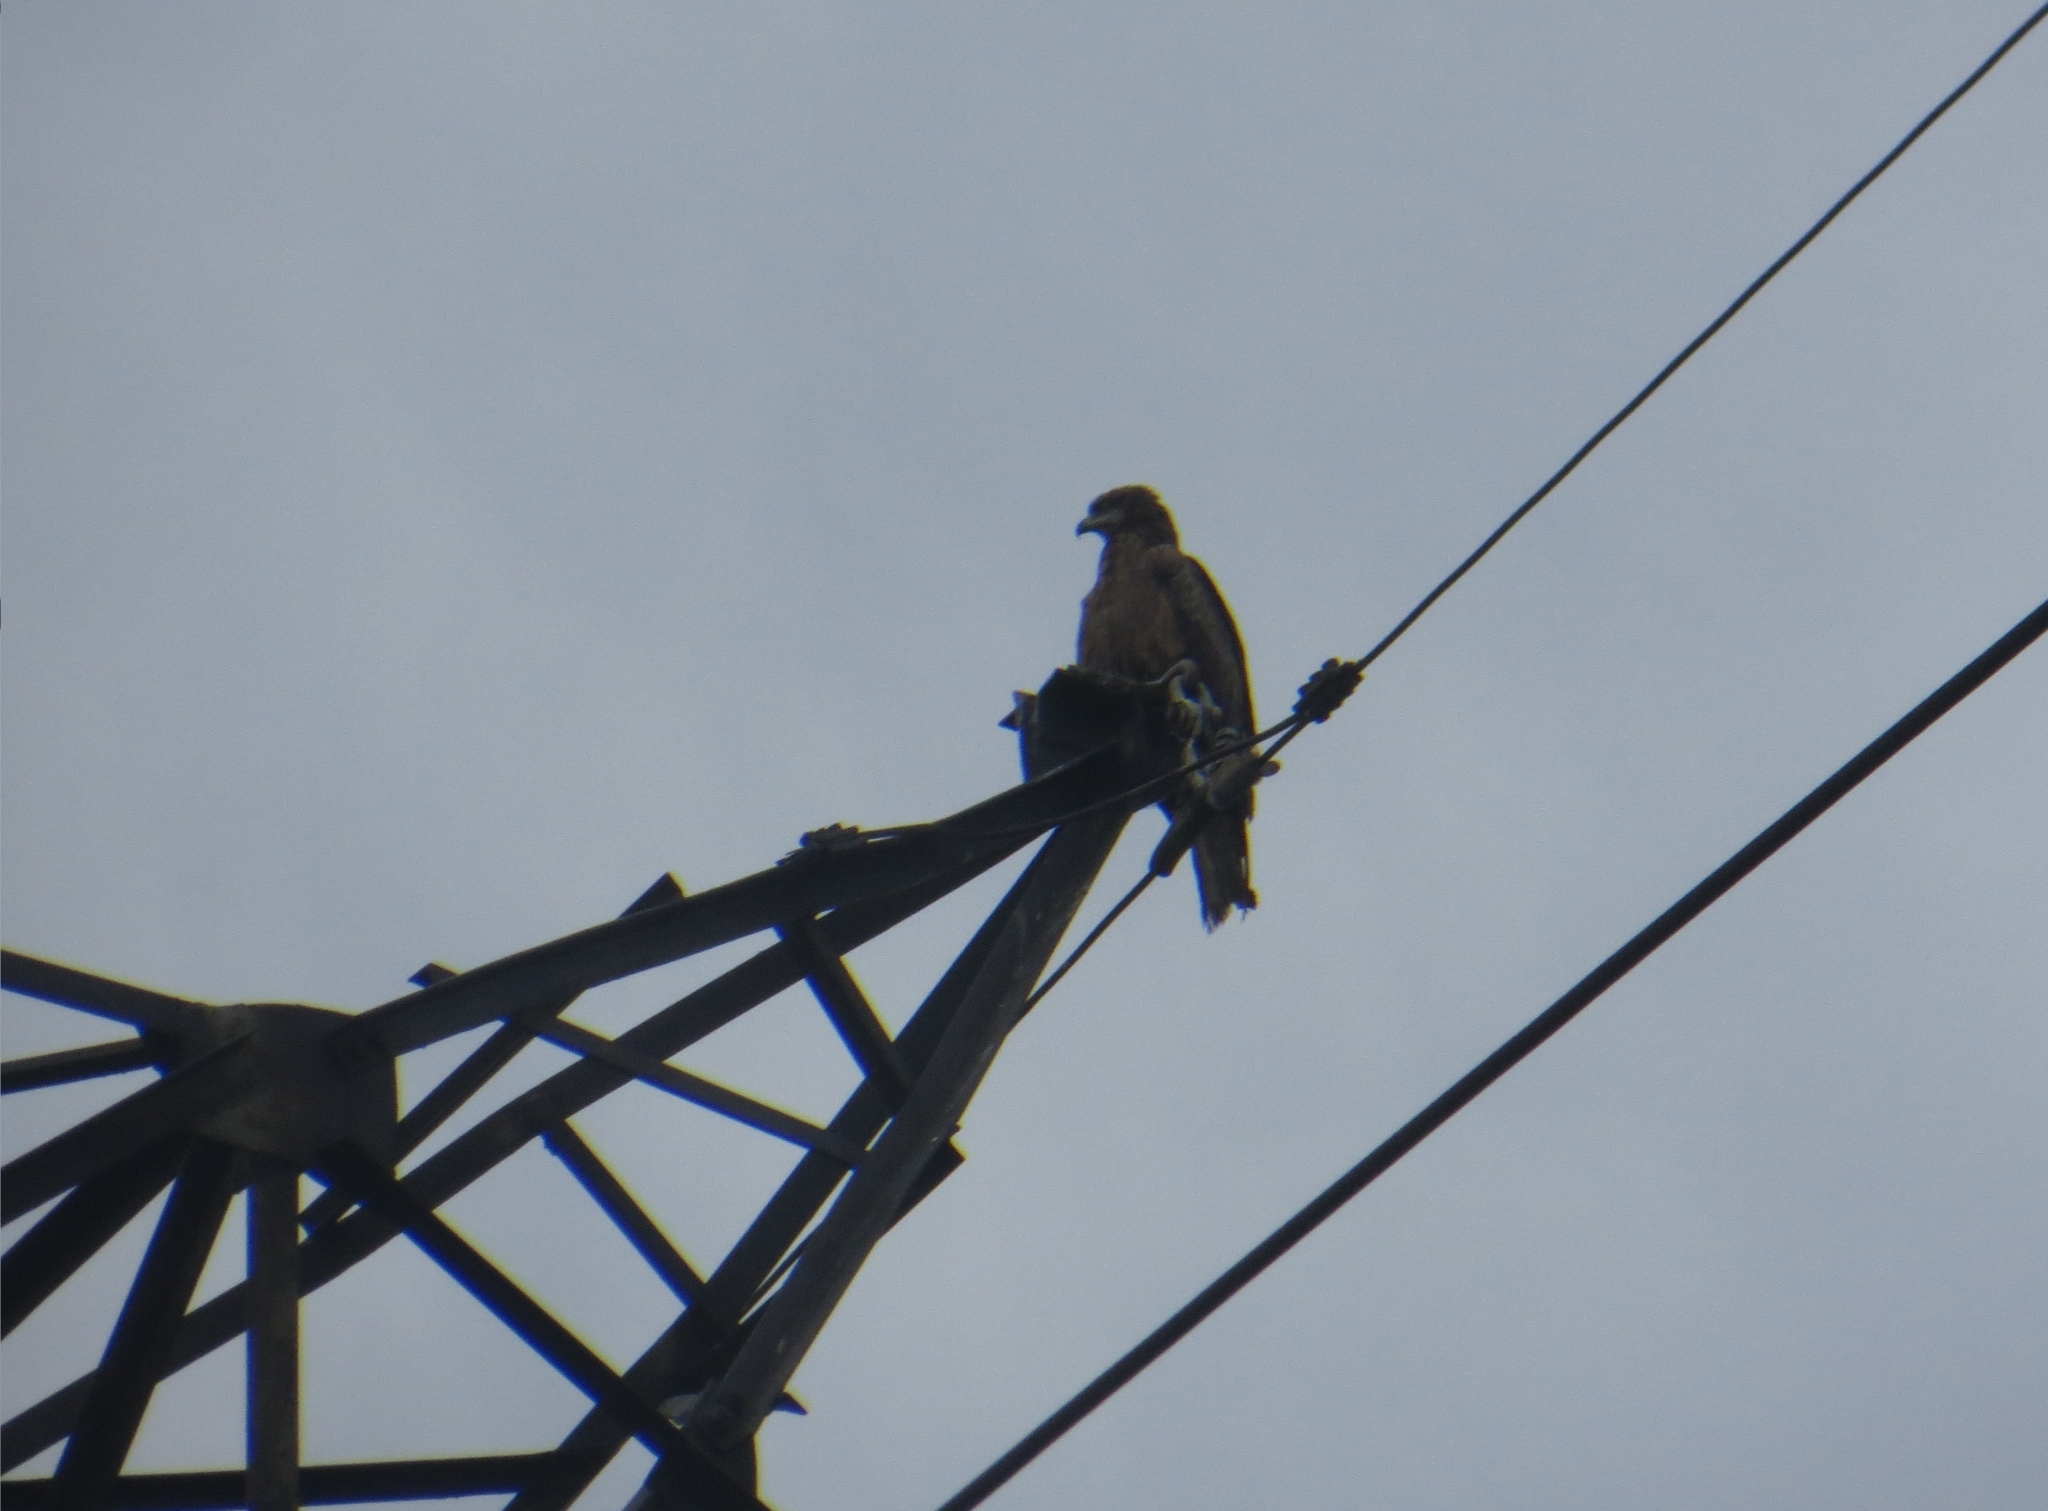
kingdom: Animalia
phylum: Chordata
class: Aves
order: Accipitriformes
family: Accipitridae
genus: Milvus
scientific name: Milvus migrans
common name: Black kite
